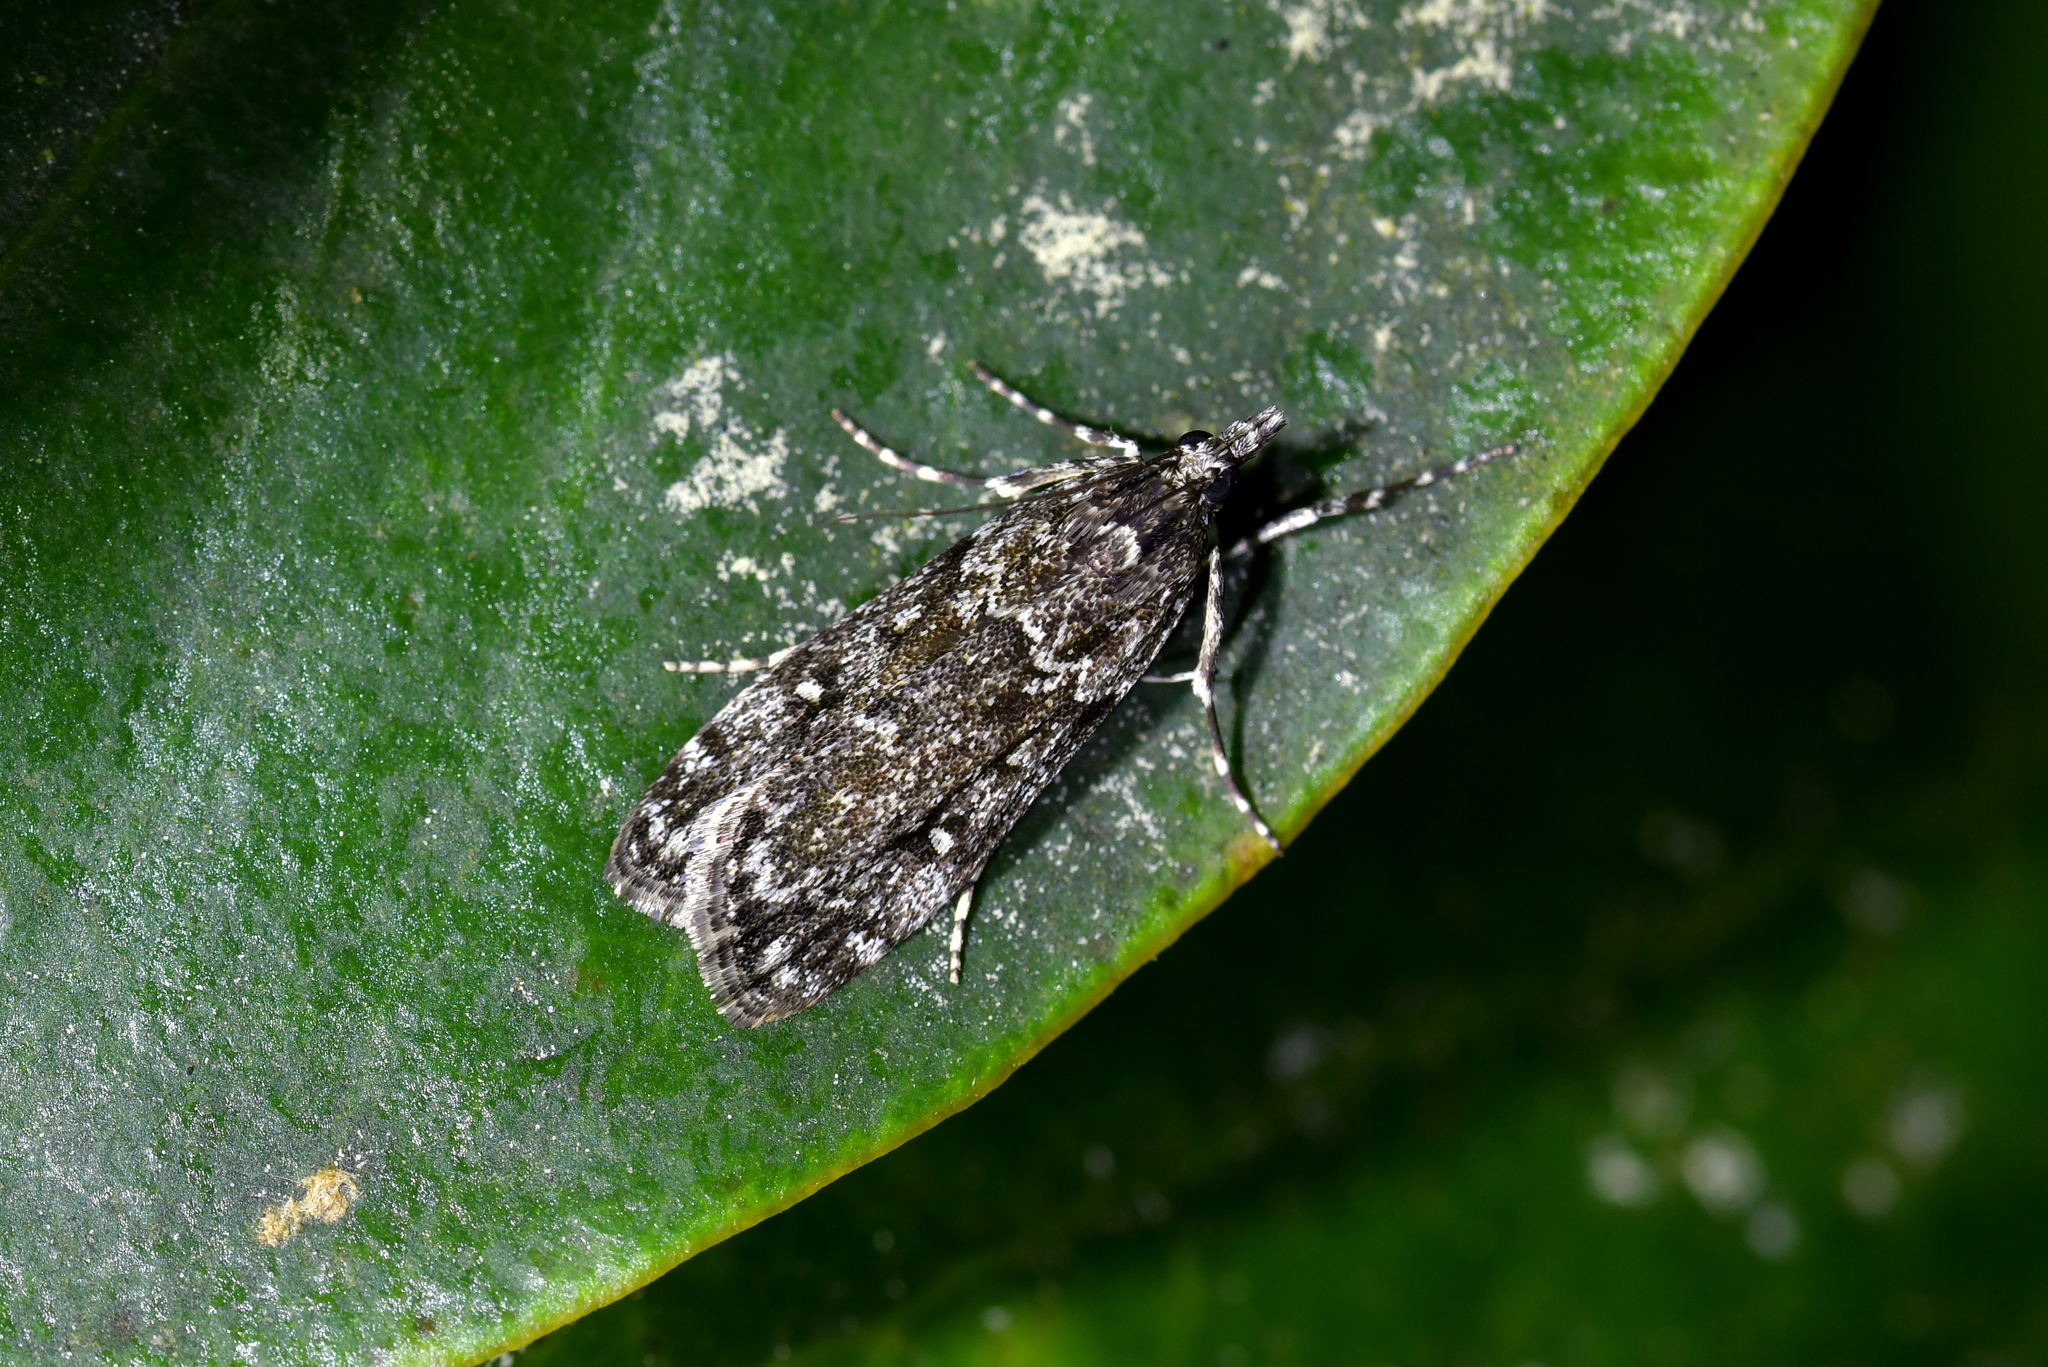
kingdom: Animalia
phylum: Arthropoda
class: Insecta
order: Lepidoptera
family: Crambidae
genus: Eudonia
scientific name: Eudonia philerga
